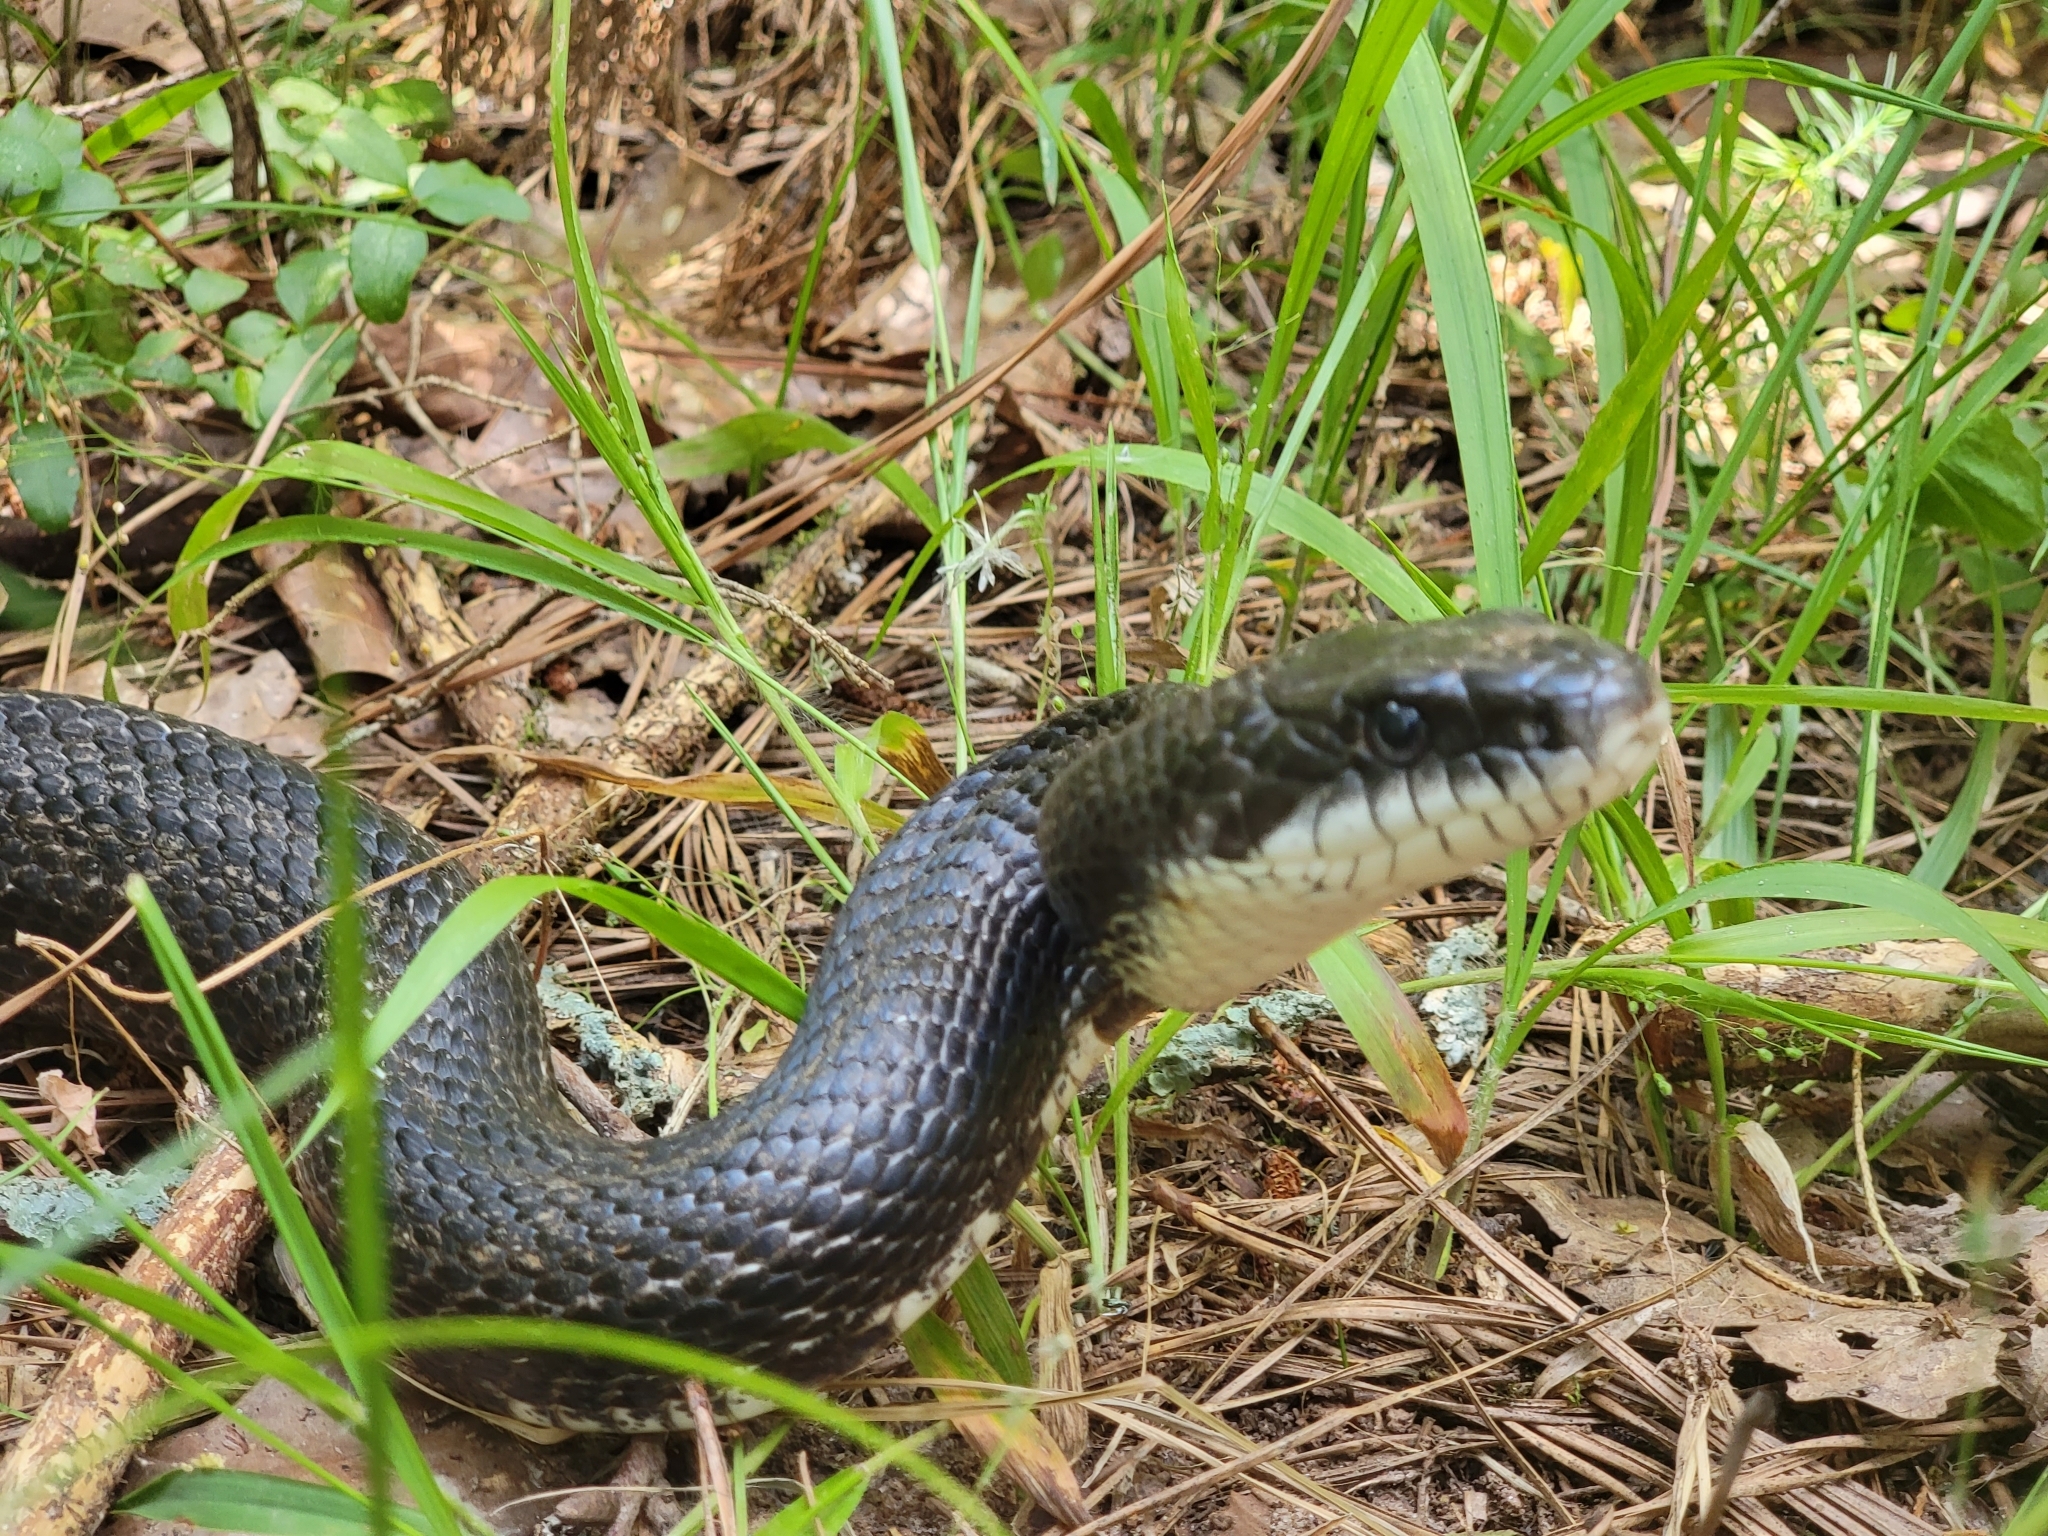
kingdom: Animalia
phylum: Chordata
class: Squamata
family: Colubridae
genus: Pantherophis
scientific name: Pantherophis
